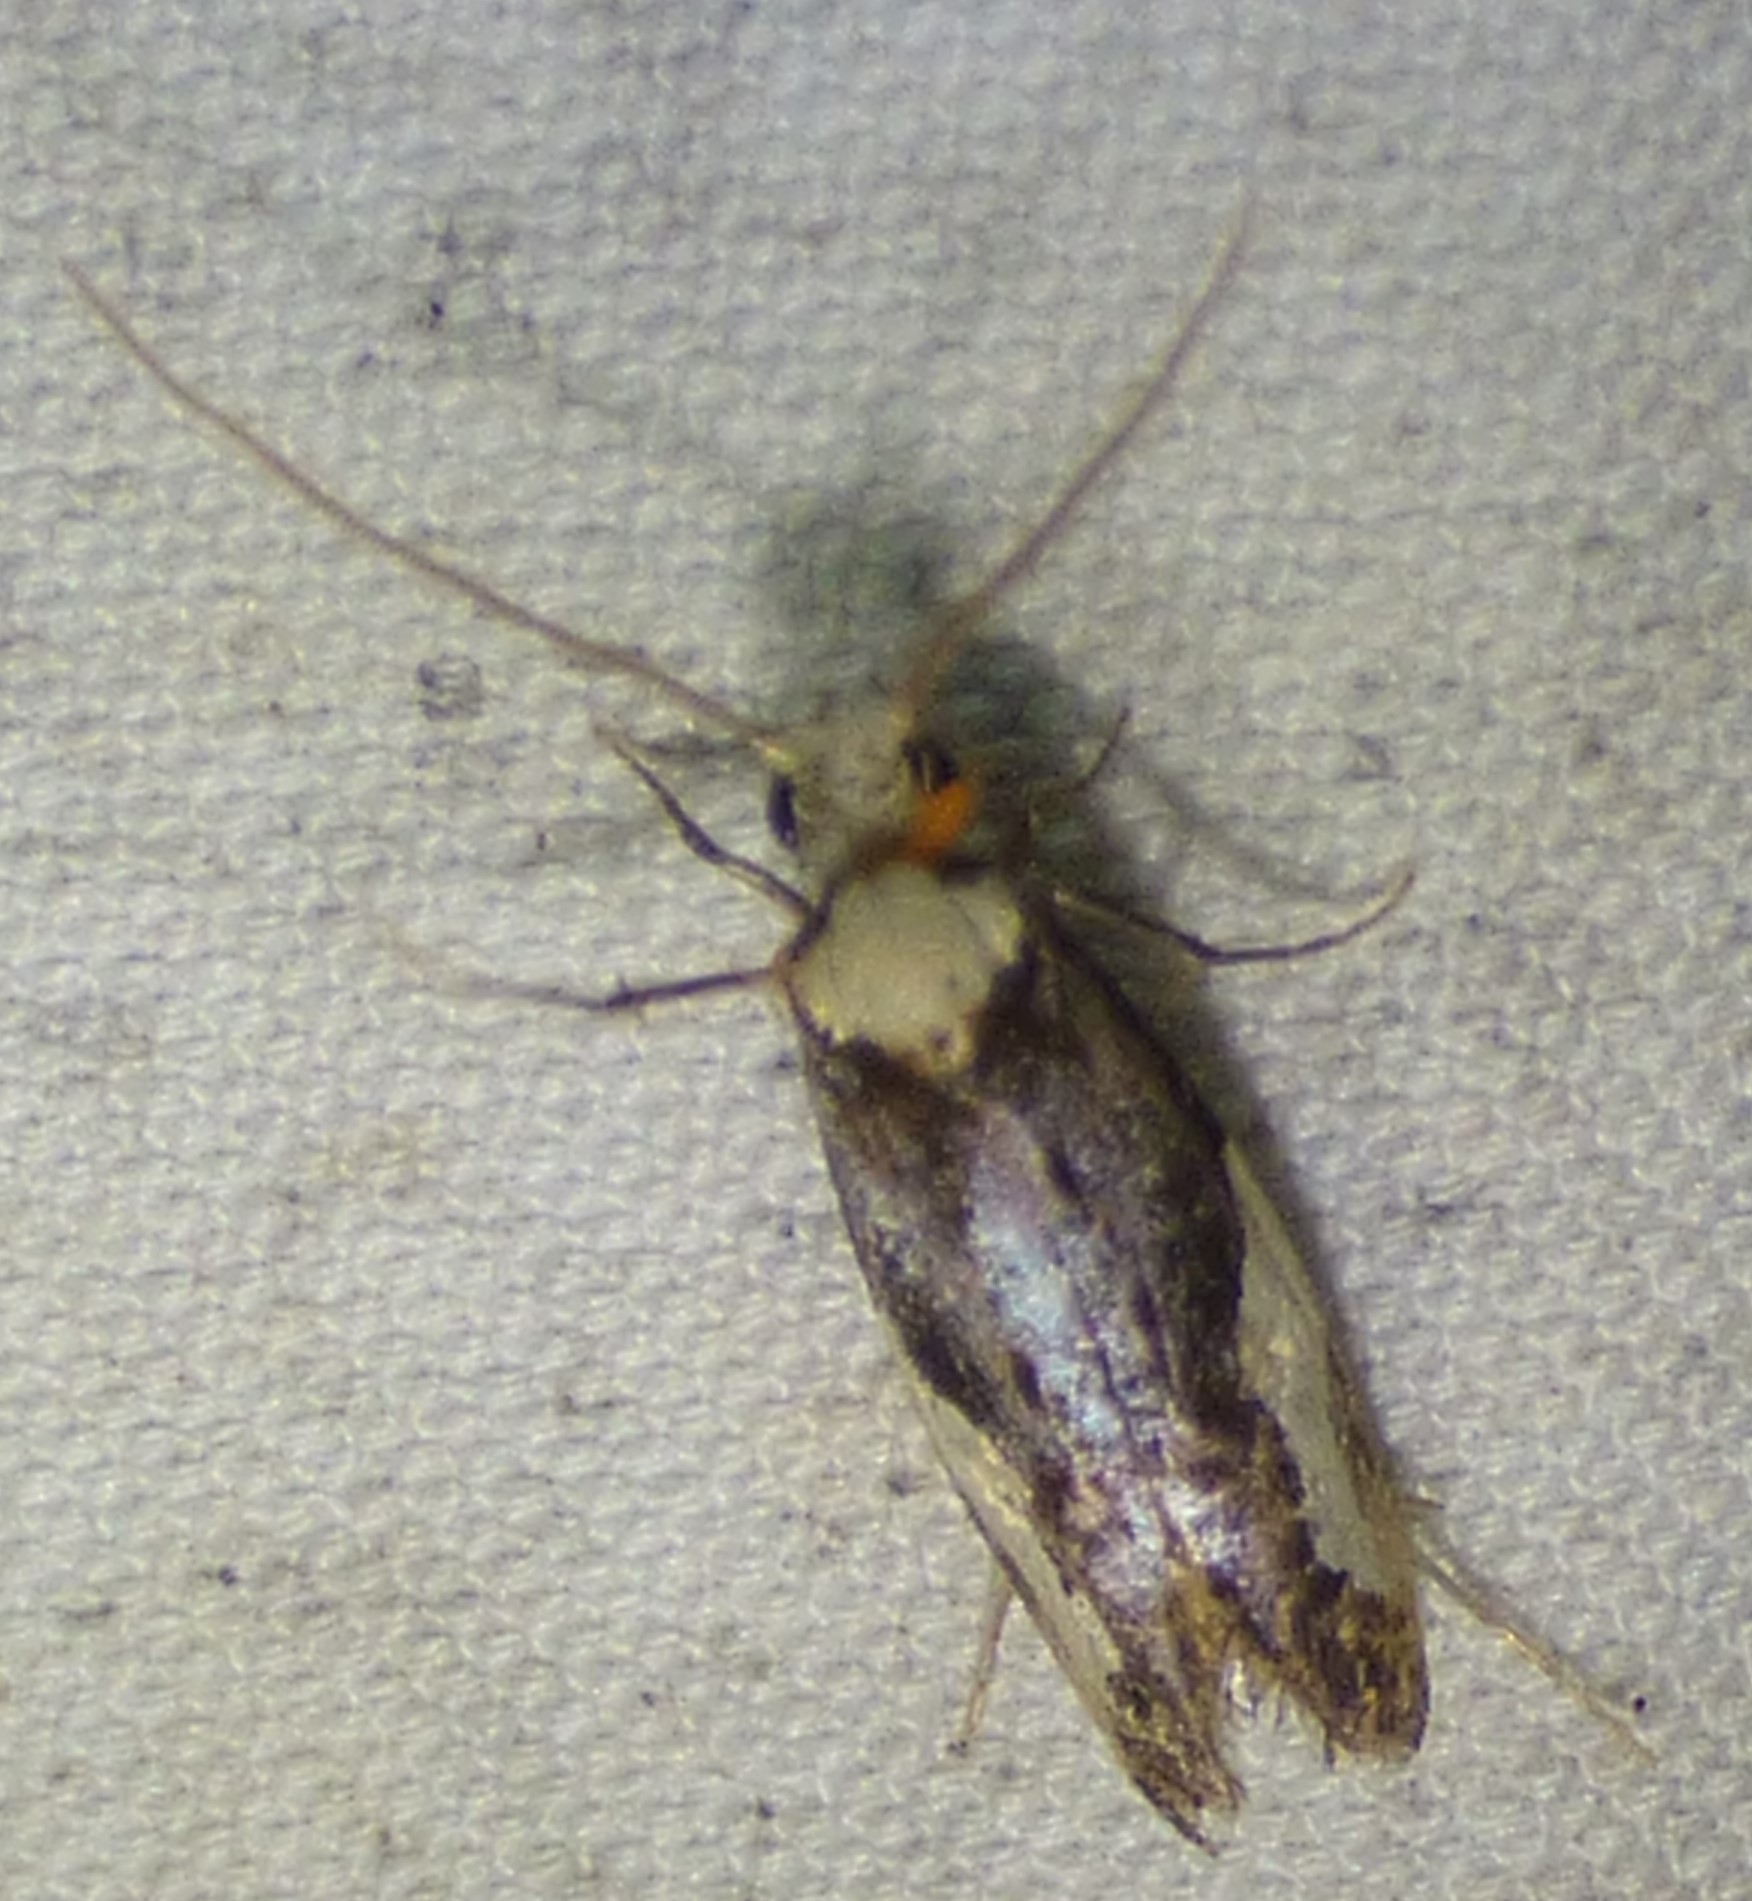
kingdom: Animalia
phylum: Arthropoda
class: Insecta
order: Lepidoptera
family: Tineidae
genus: Monopis
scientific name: Monopis longella
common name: Pavlovski's monopis moth
